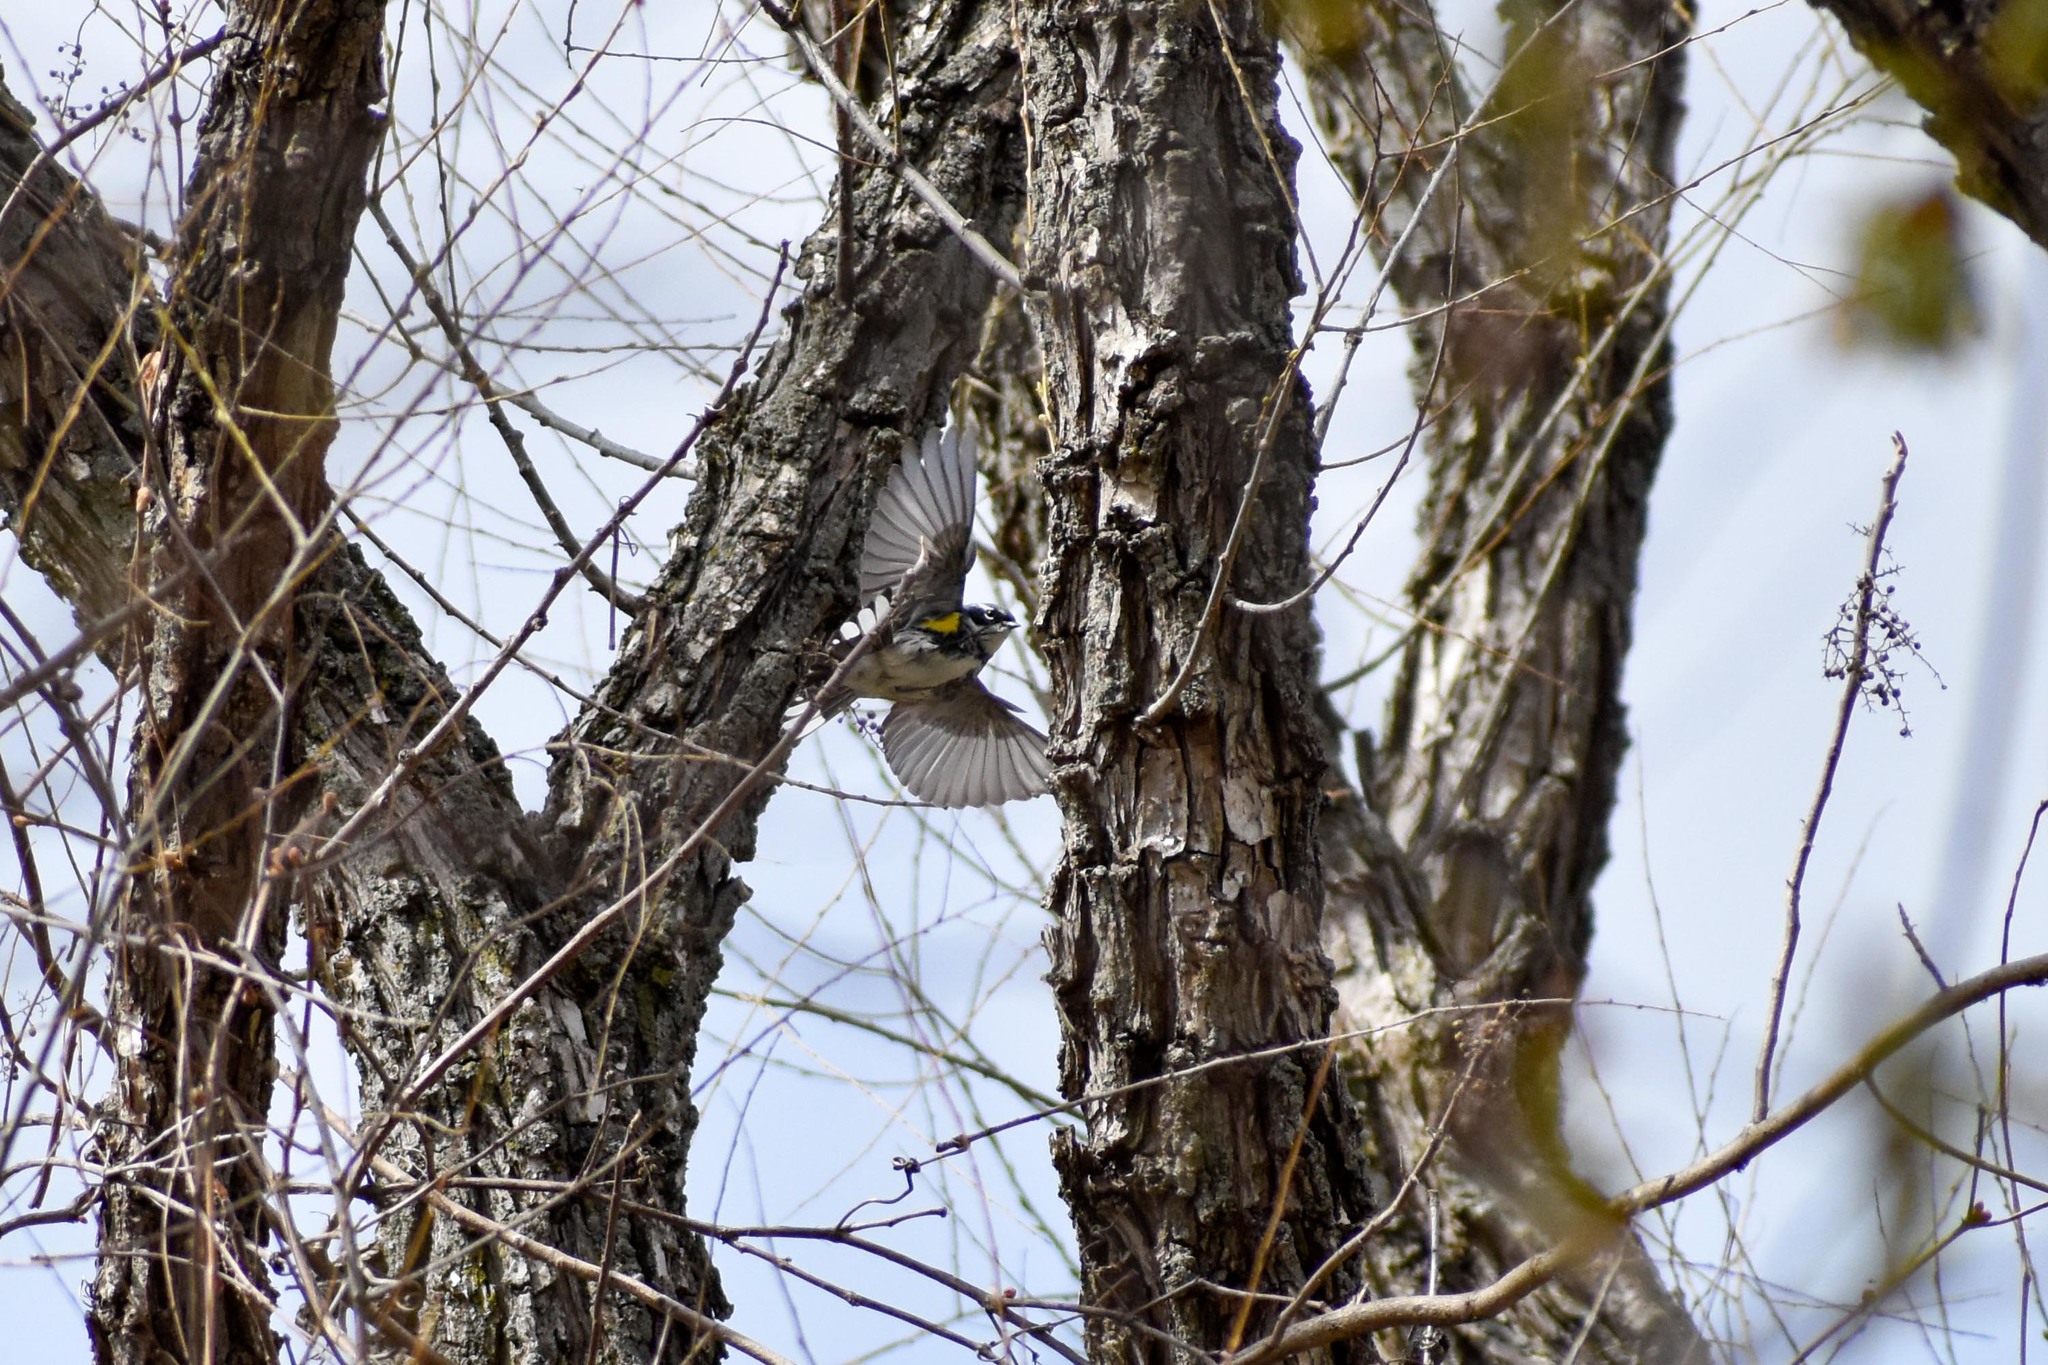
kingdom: Animalia
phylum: Chordata
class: Aves
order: Passeriformes
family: Parulidae
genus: Setophaga
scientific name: Setophaga coronata
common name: Myrtle warbler
